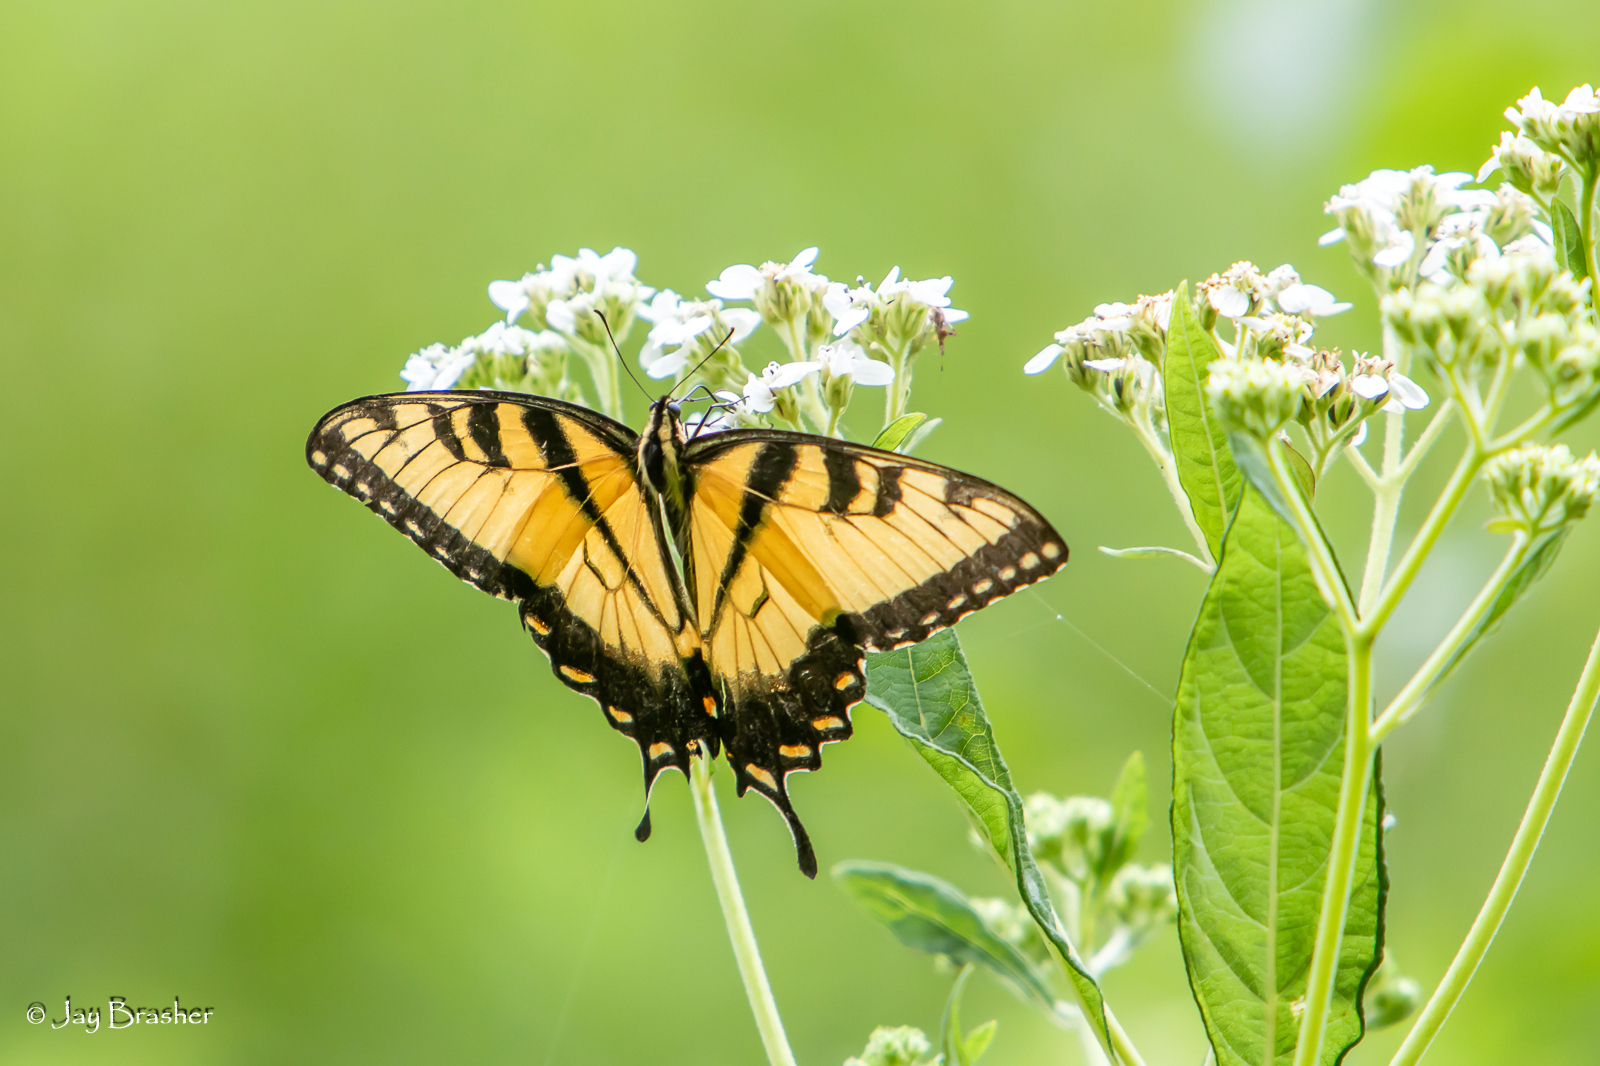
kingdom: Animalia
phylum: Arthropoda
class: Insecta
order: Lepidoptera
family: Papilionidae
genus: Papilio
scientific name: Papilio glaucus
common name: Tiger swallowtail
